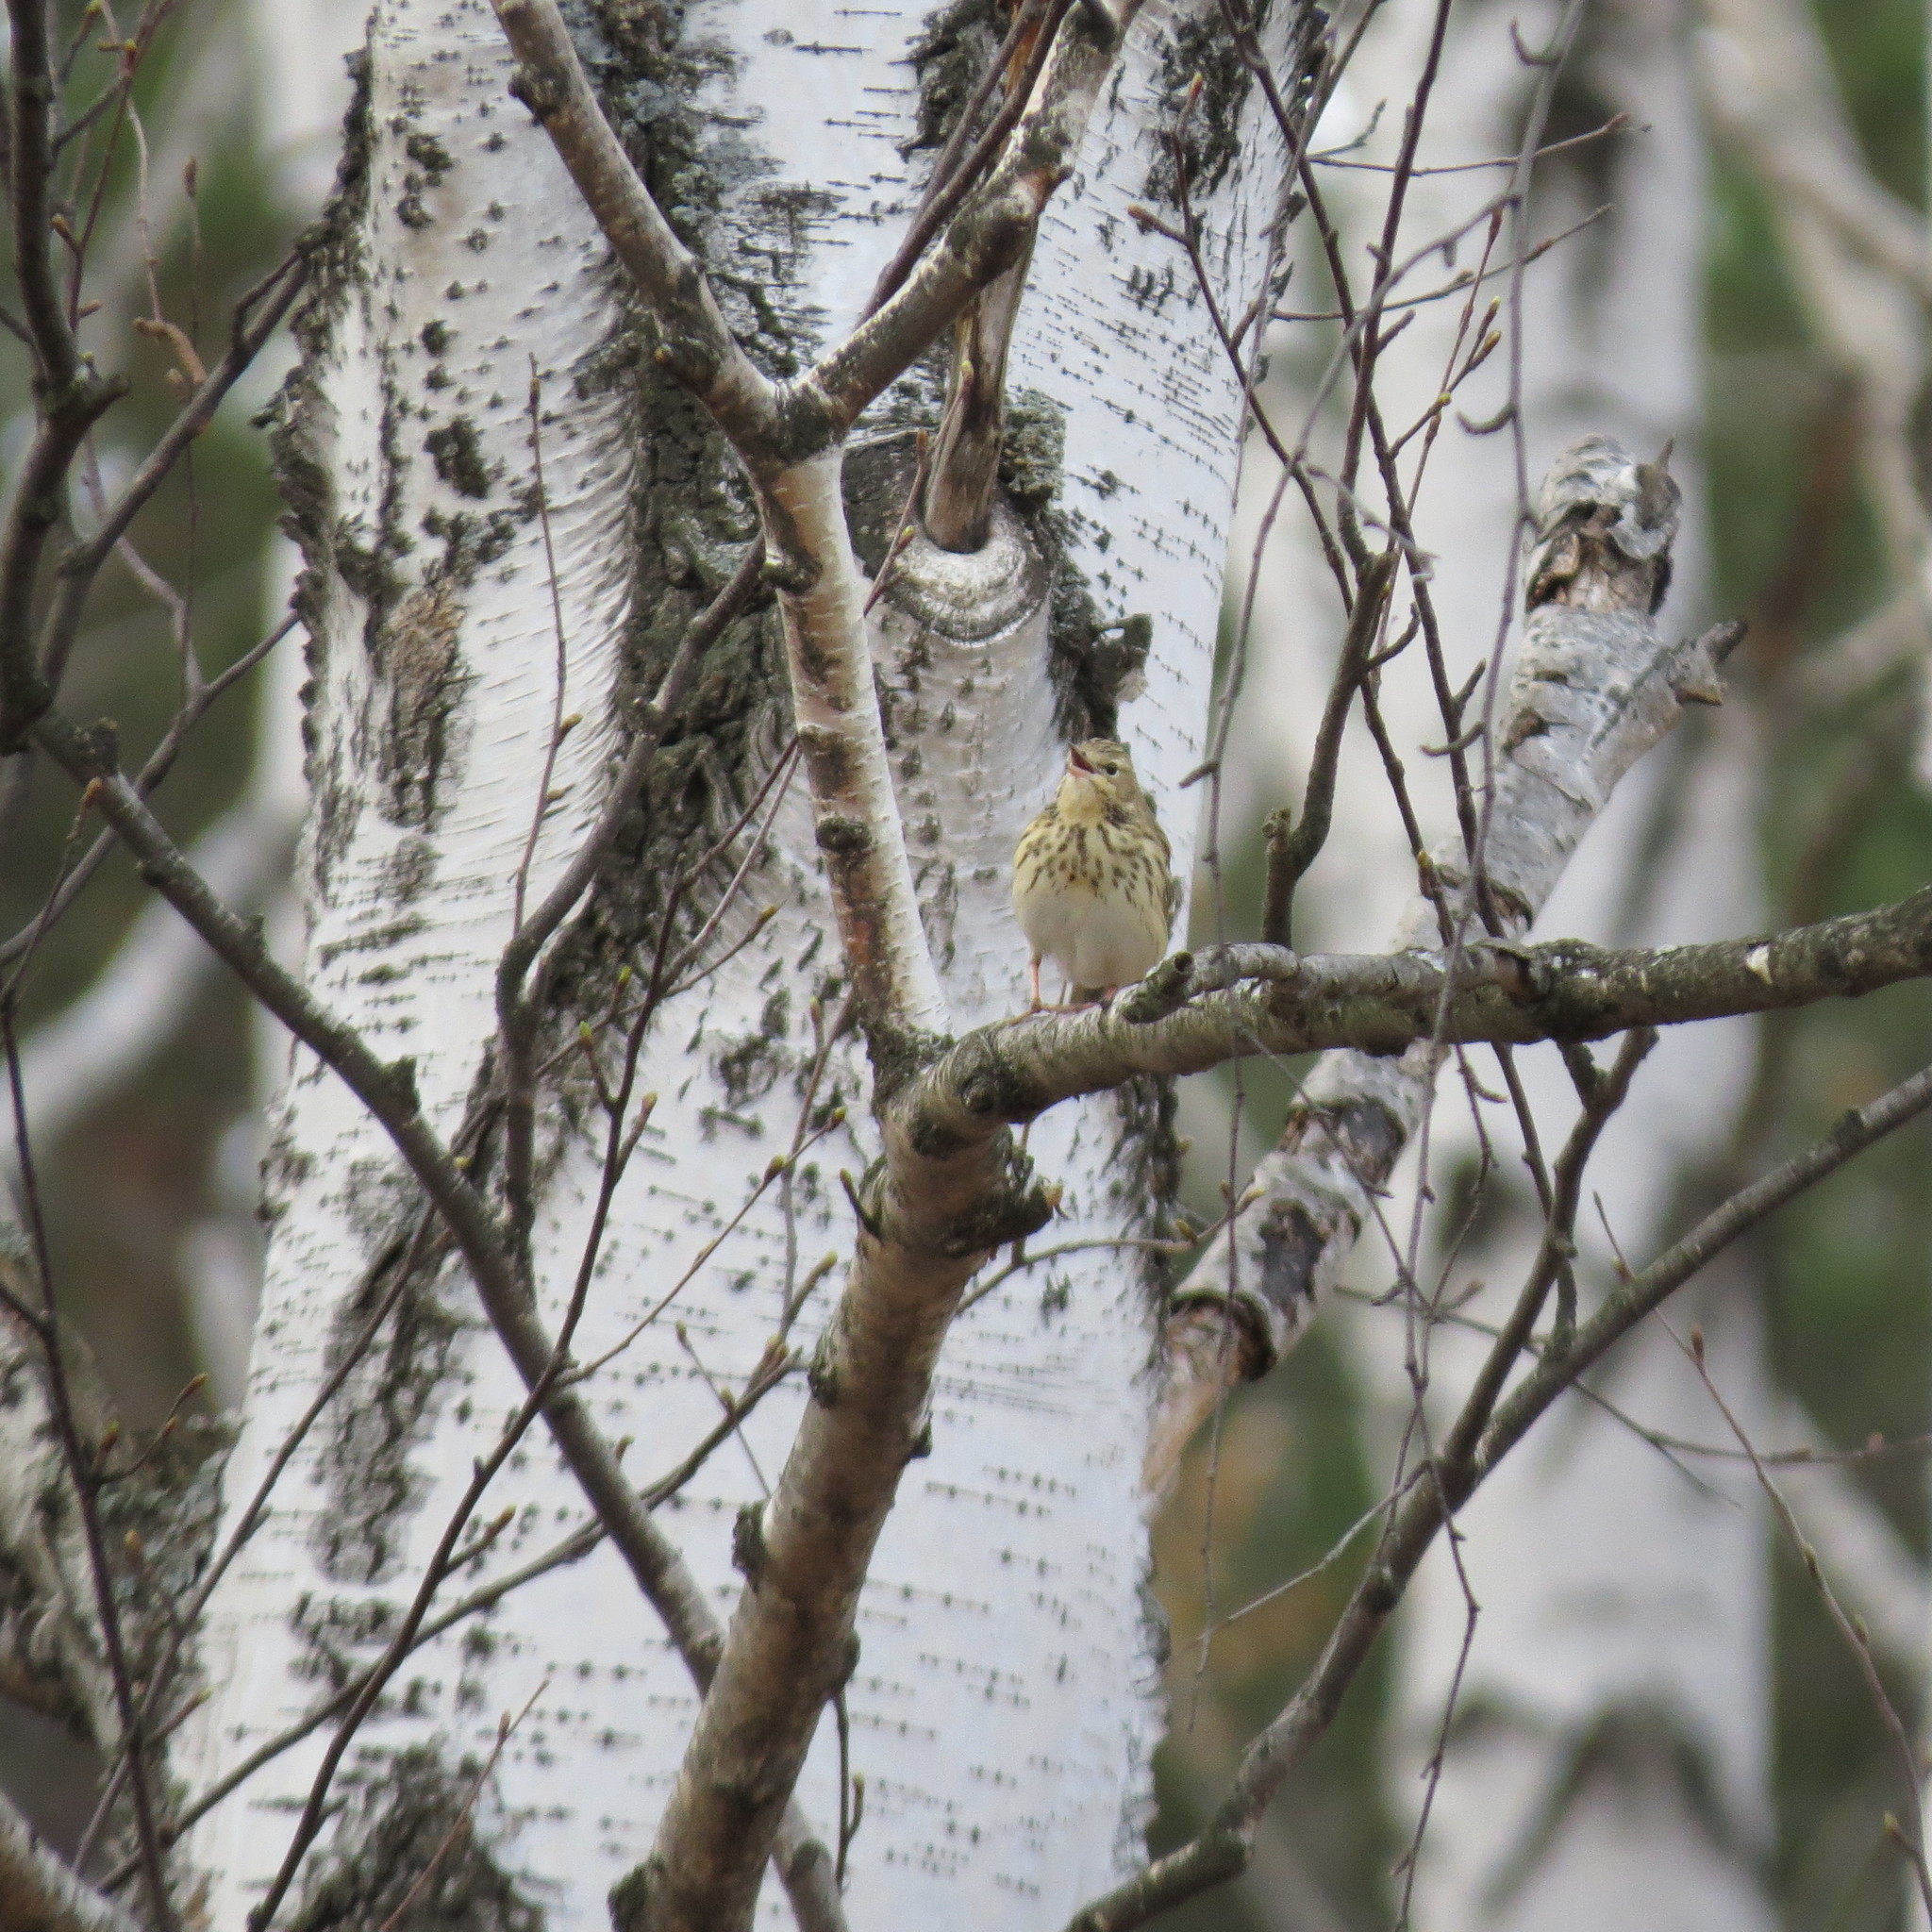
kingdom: Animalia
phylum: Chordata
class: Aves
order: Passeriformes
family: Motacillidae
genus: Anthus
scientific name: Anthus trivialis
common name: Tree pipit
